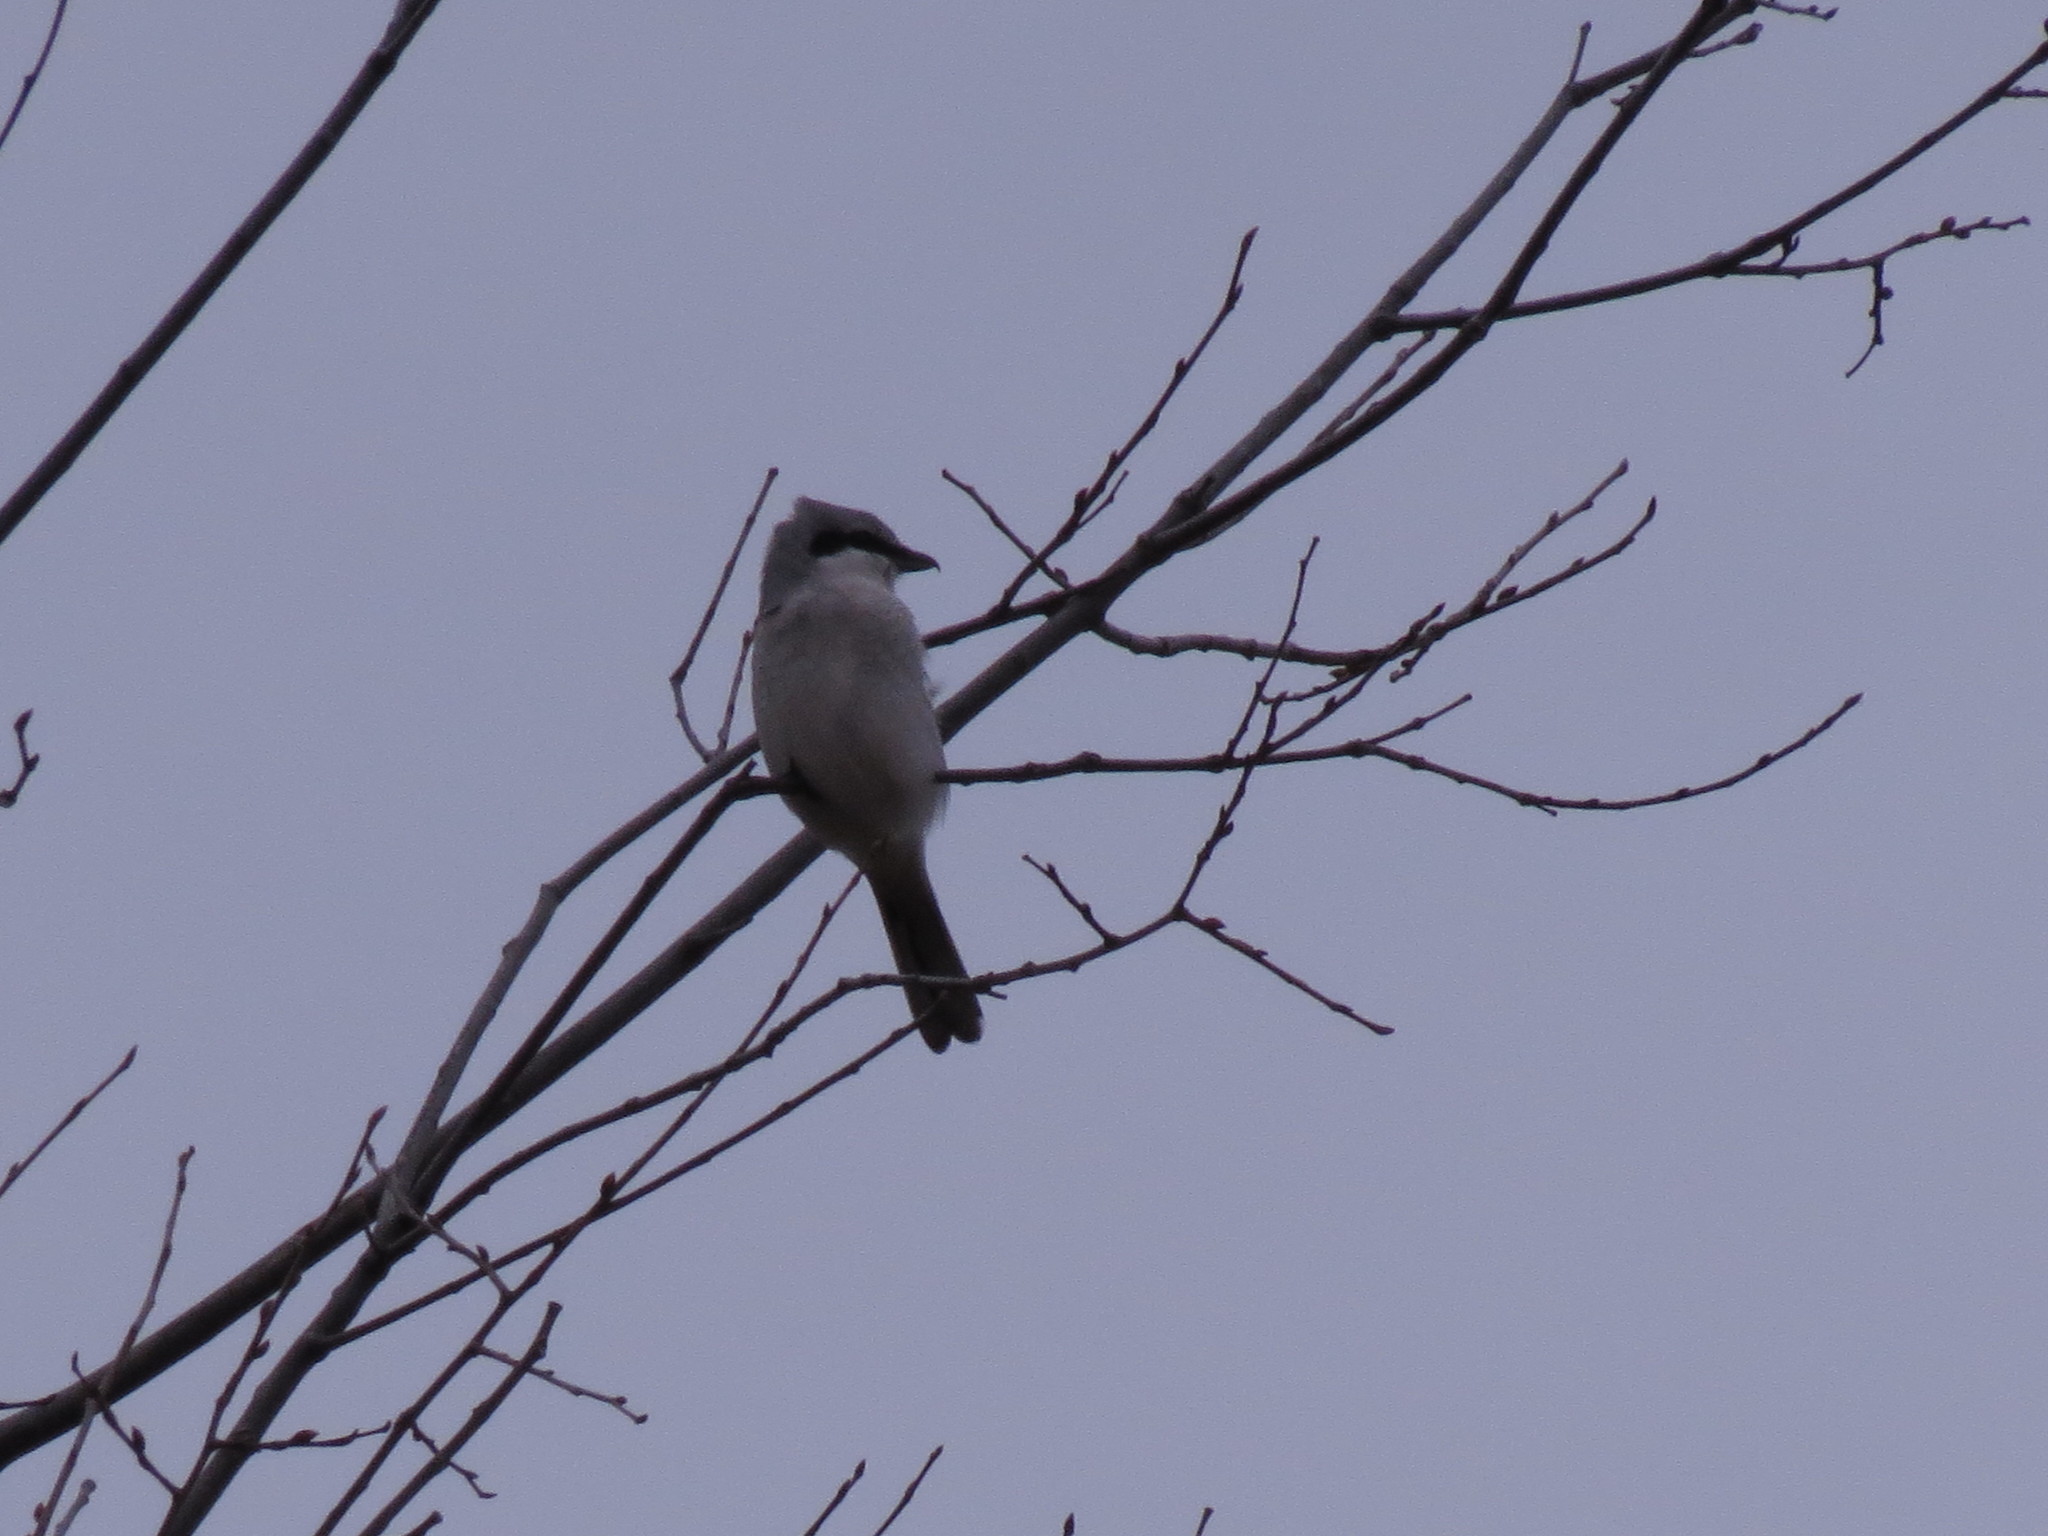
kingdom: Animalia
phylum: Chordata
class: Aves
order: Passeriformes
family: Laniidae
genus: Lanius
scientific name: Lanius borealis
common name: Northern shrike
